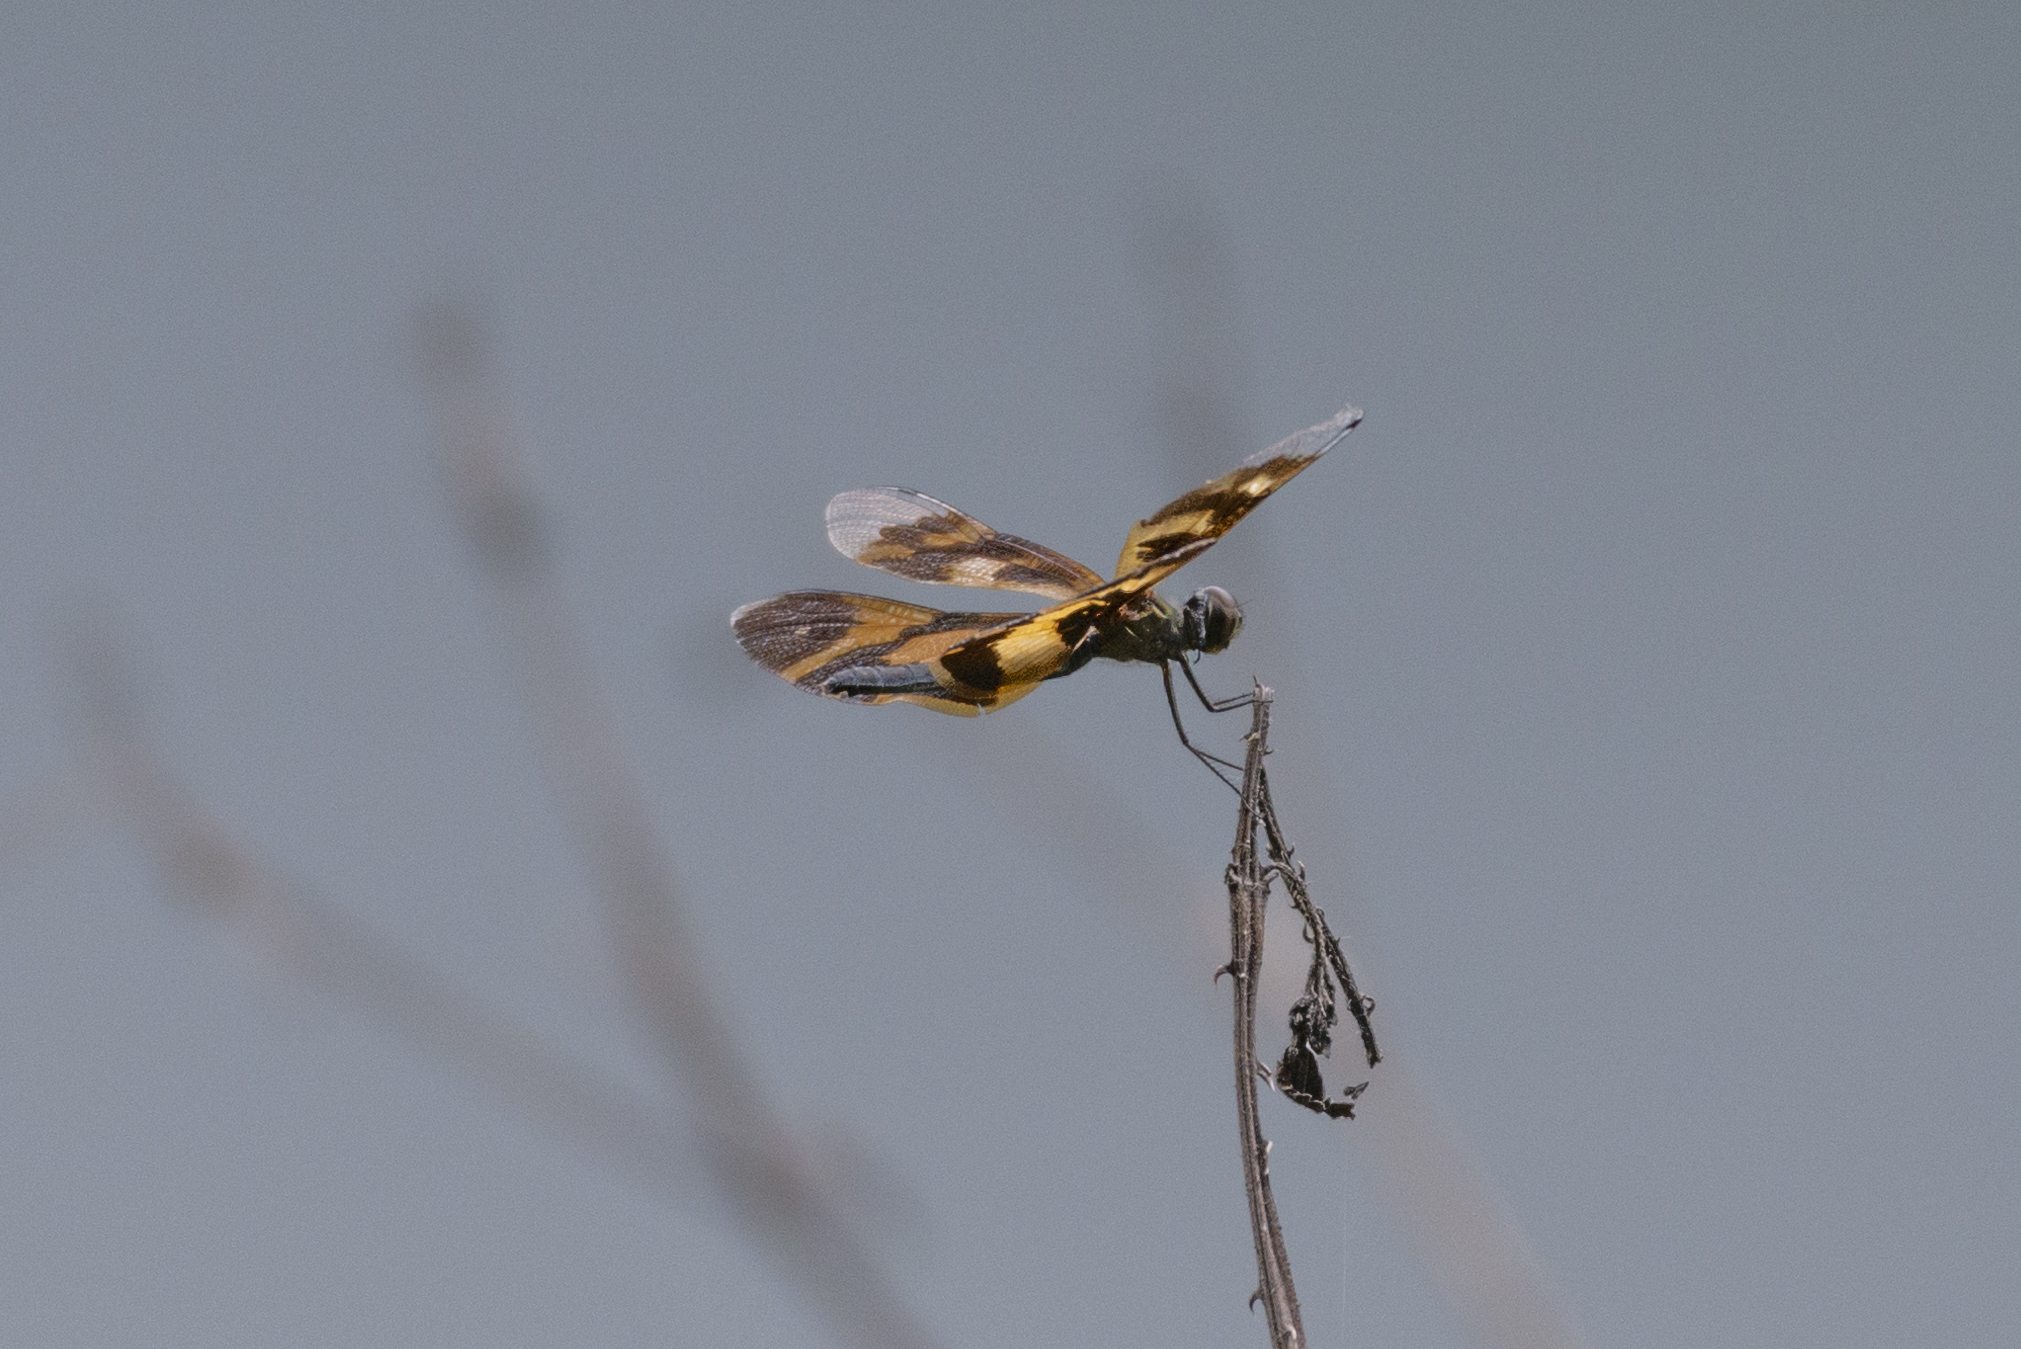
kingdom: Animalia
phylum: Arthropoda
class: Insecta
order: Odonata
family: Libellulidae
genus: Rhyothemis
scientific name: Rhyothemis variegata
